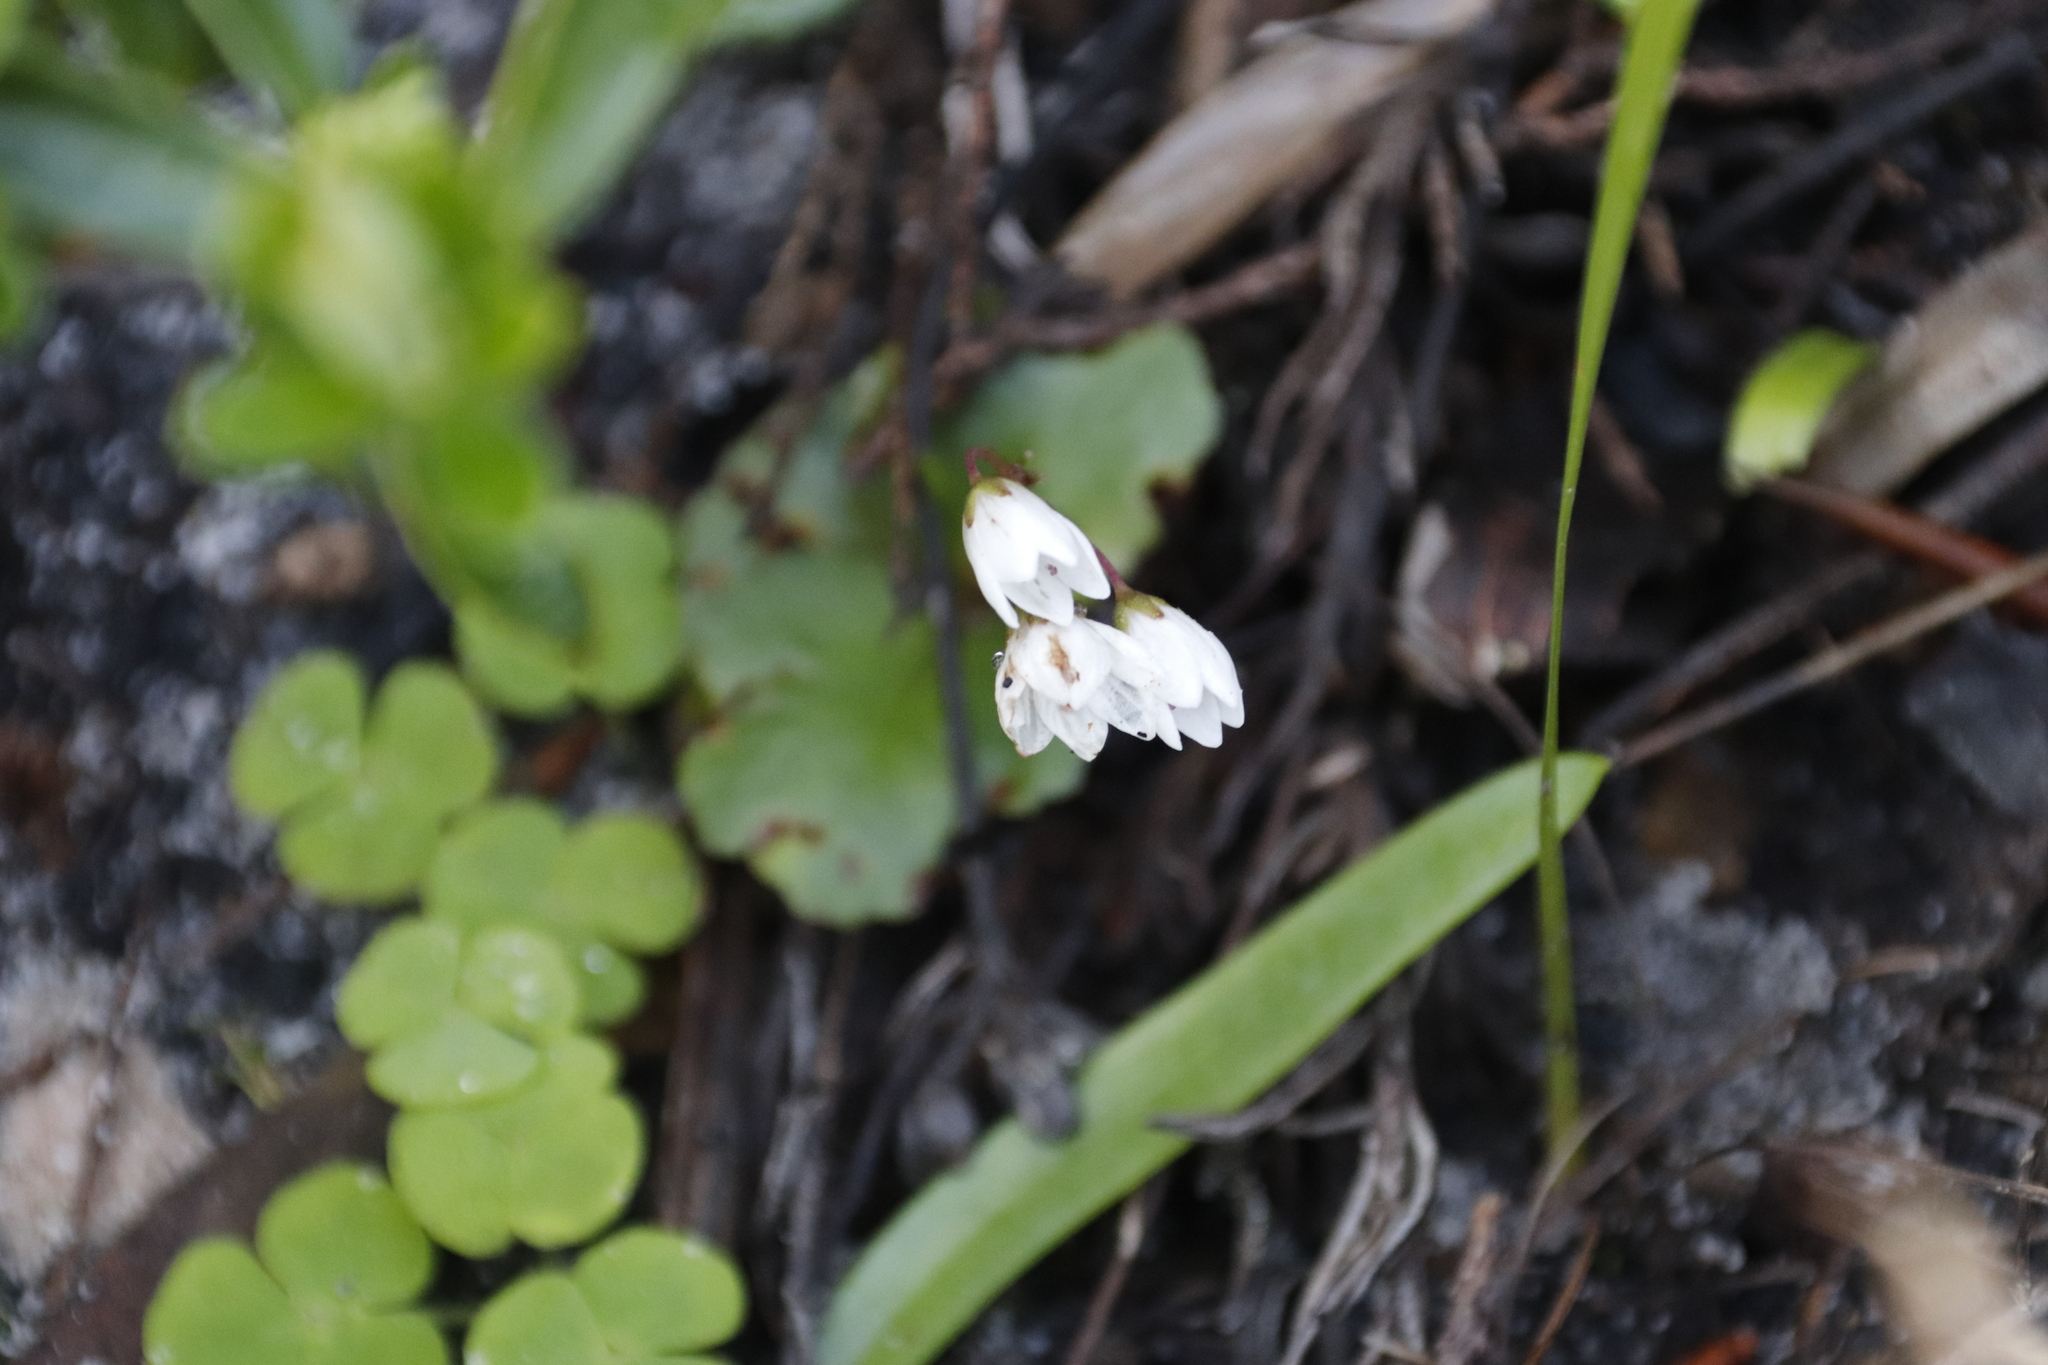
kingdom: Plantae
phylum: Tracheophyta
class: Magnoliopsida
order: Saxifragales
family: Crassulaceae
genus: Crassula
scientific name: Crassula capensis
